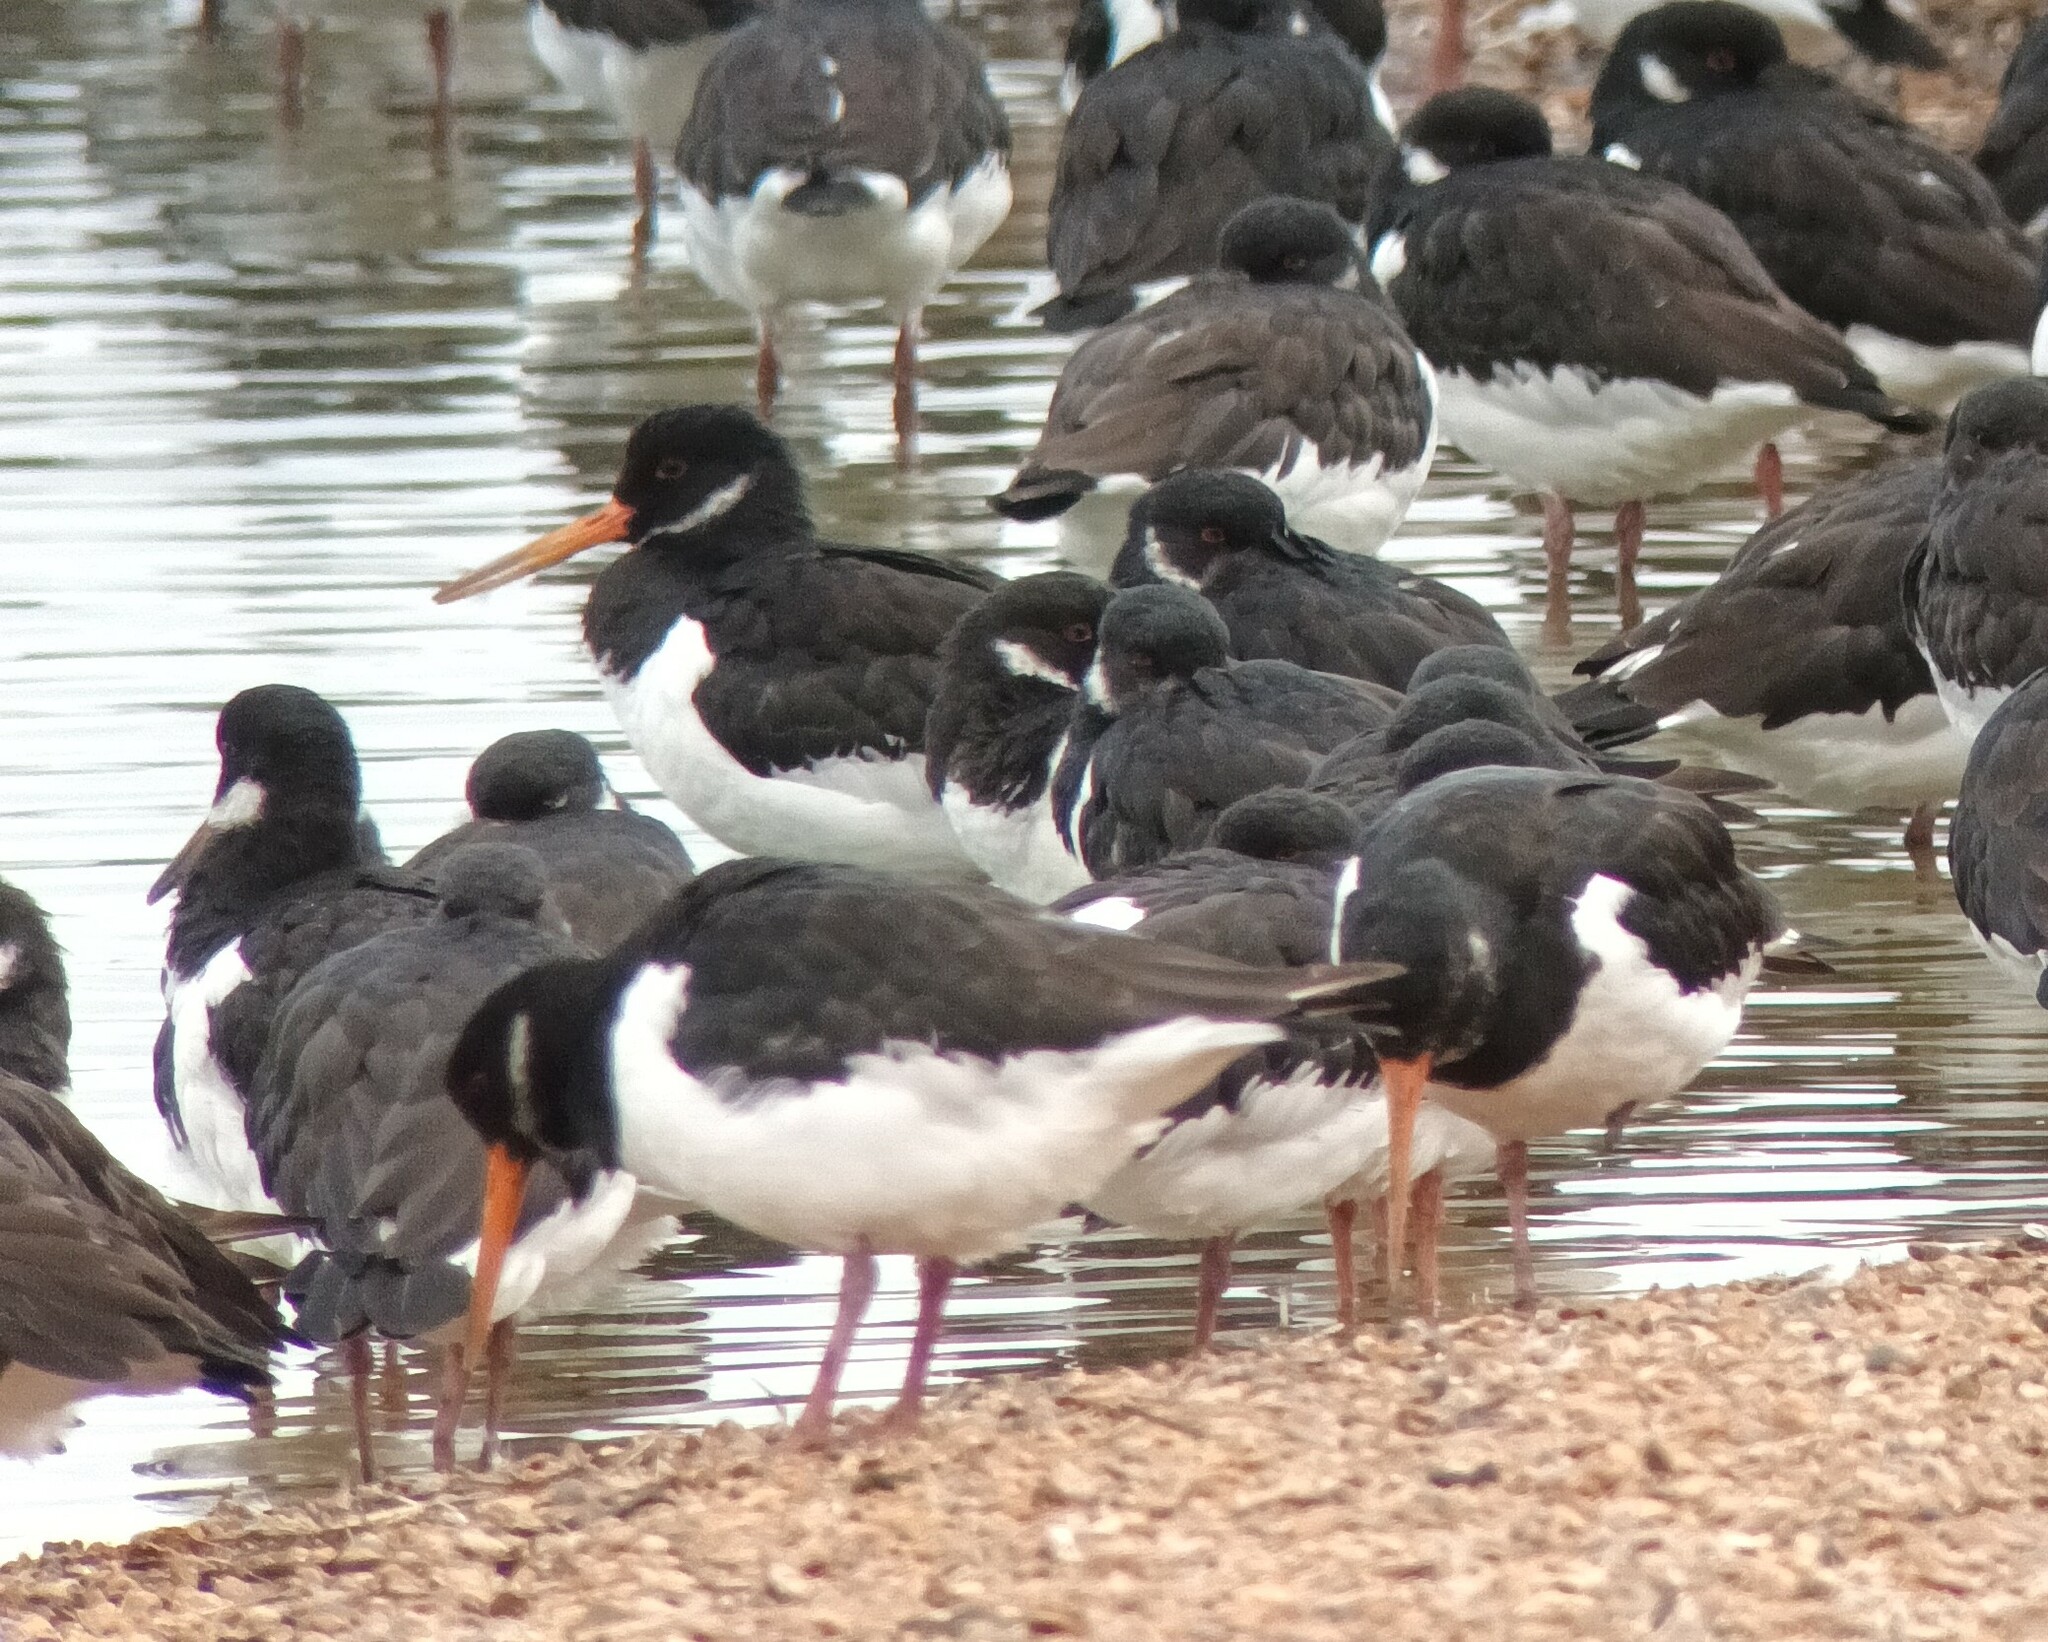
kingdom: Animalia
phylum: Chordata
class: Aves
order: Charadriiformes
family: Haematopodidae
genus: Haematopus
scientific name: Haematopus ostralegus
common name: Eurasian oystercatcher
